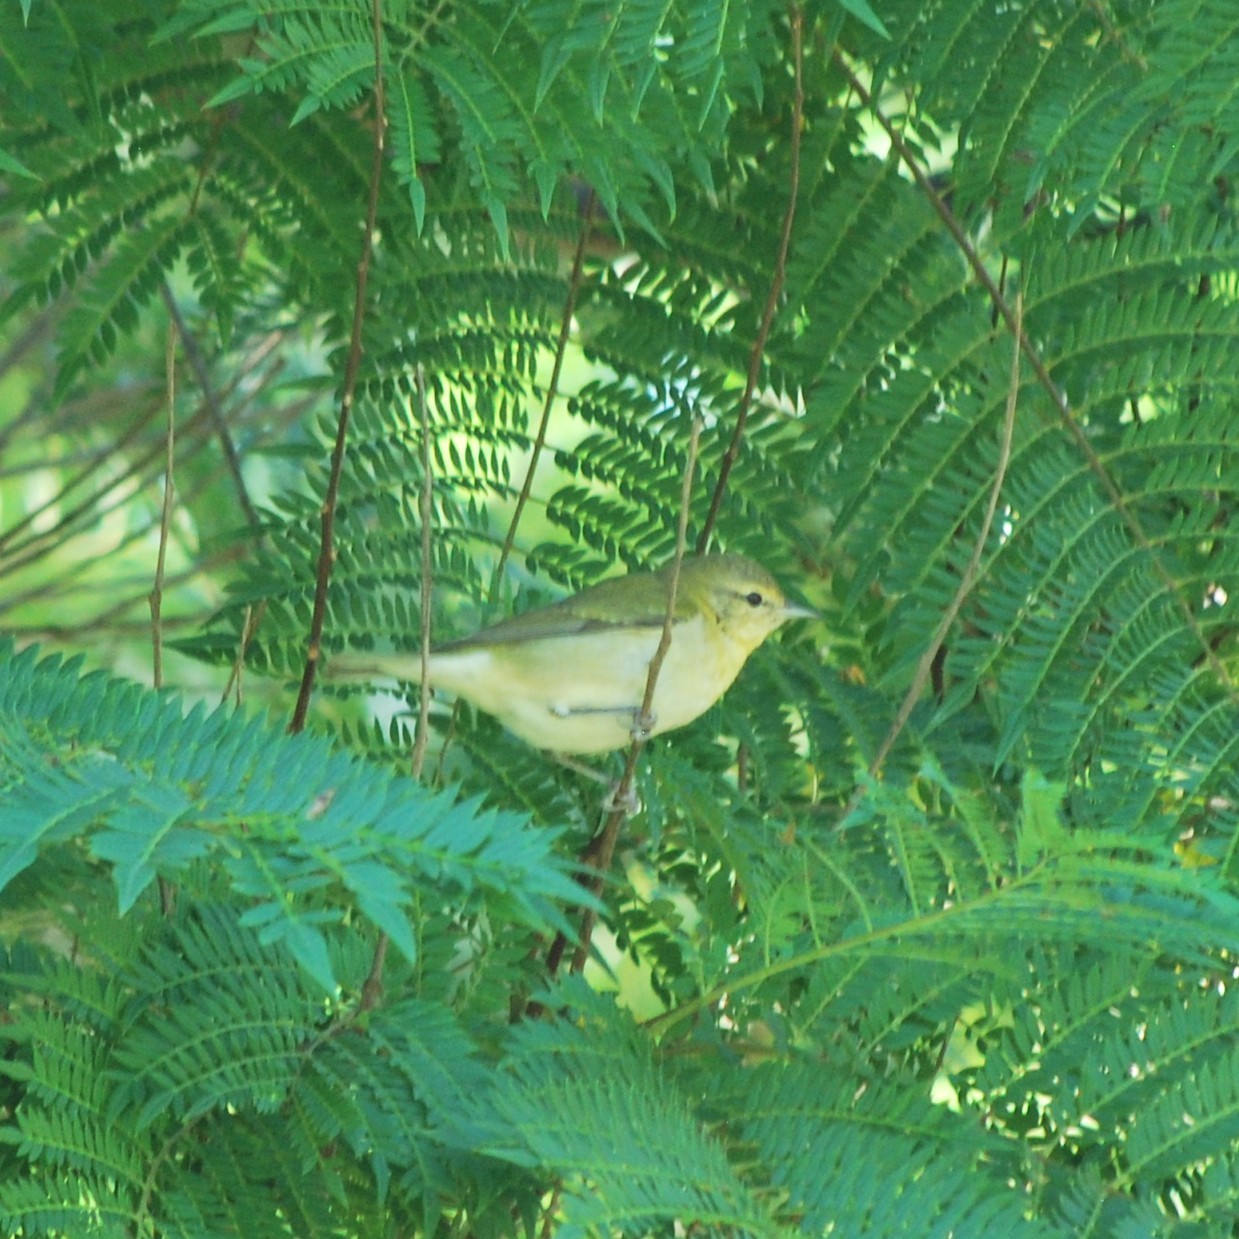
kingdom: Animalia
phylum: Chordata
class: Aves
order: Passeriformes
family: Parulidae
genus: Leiothlypis
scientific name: Leiothlypis peregrina
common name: Tennessee warbler
